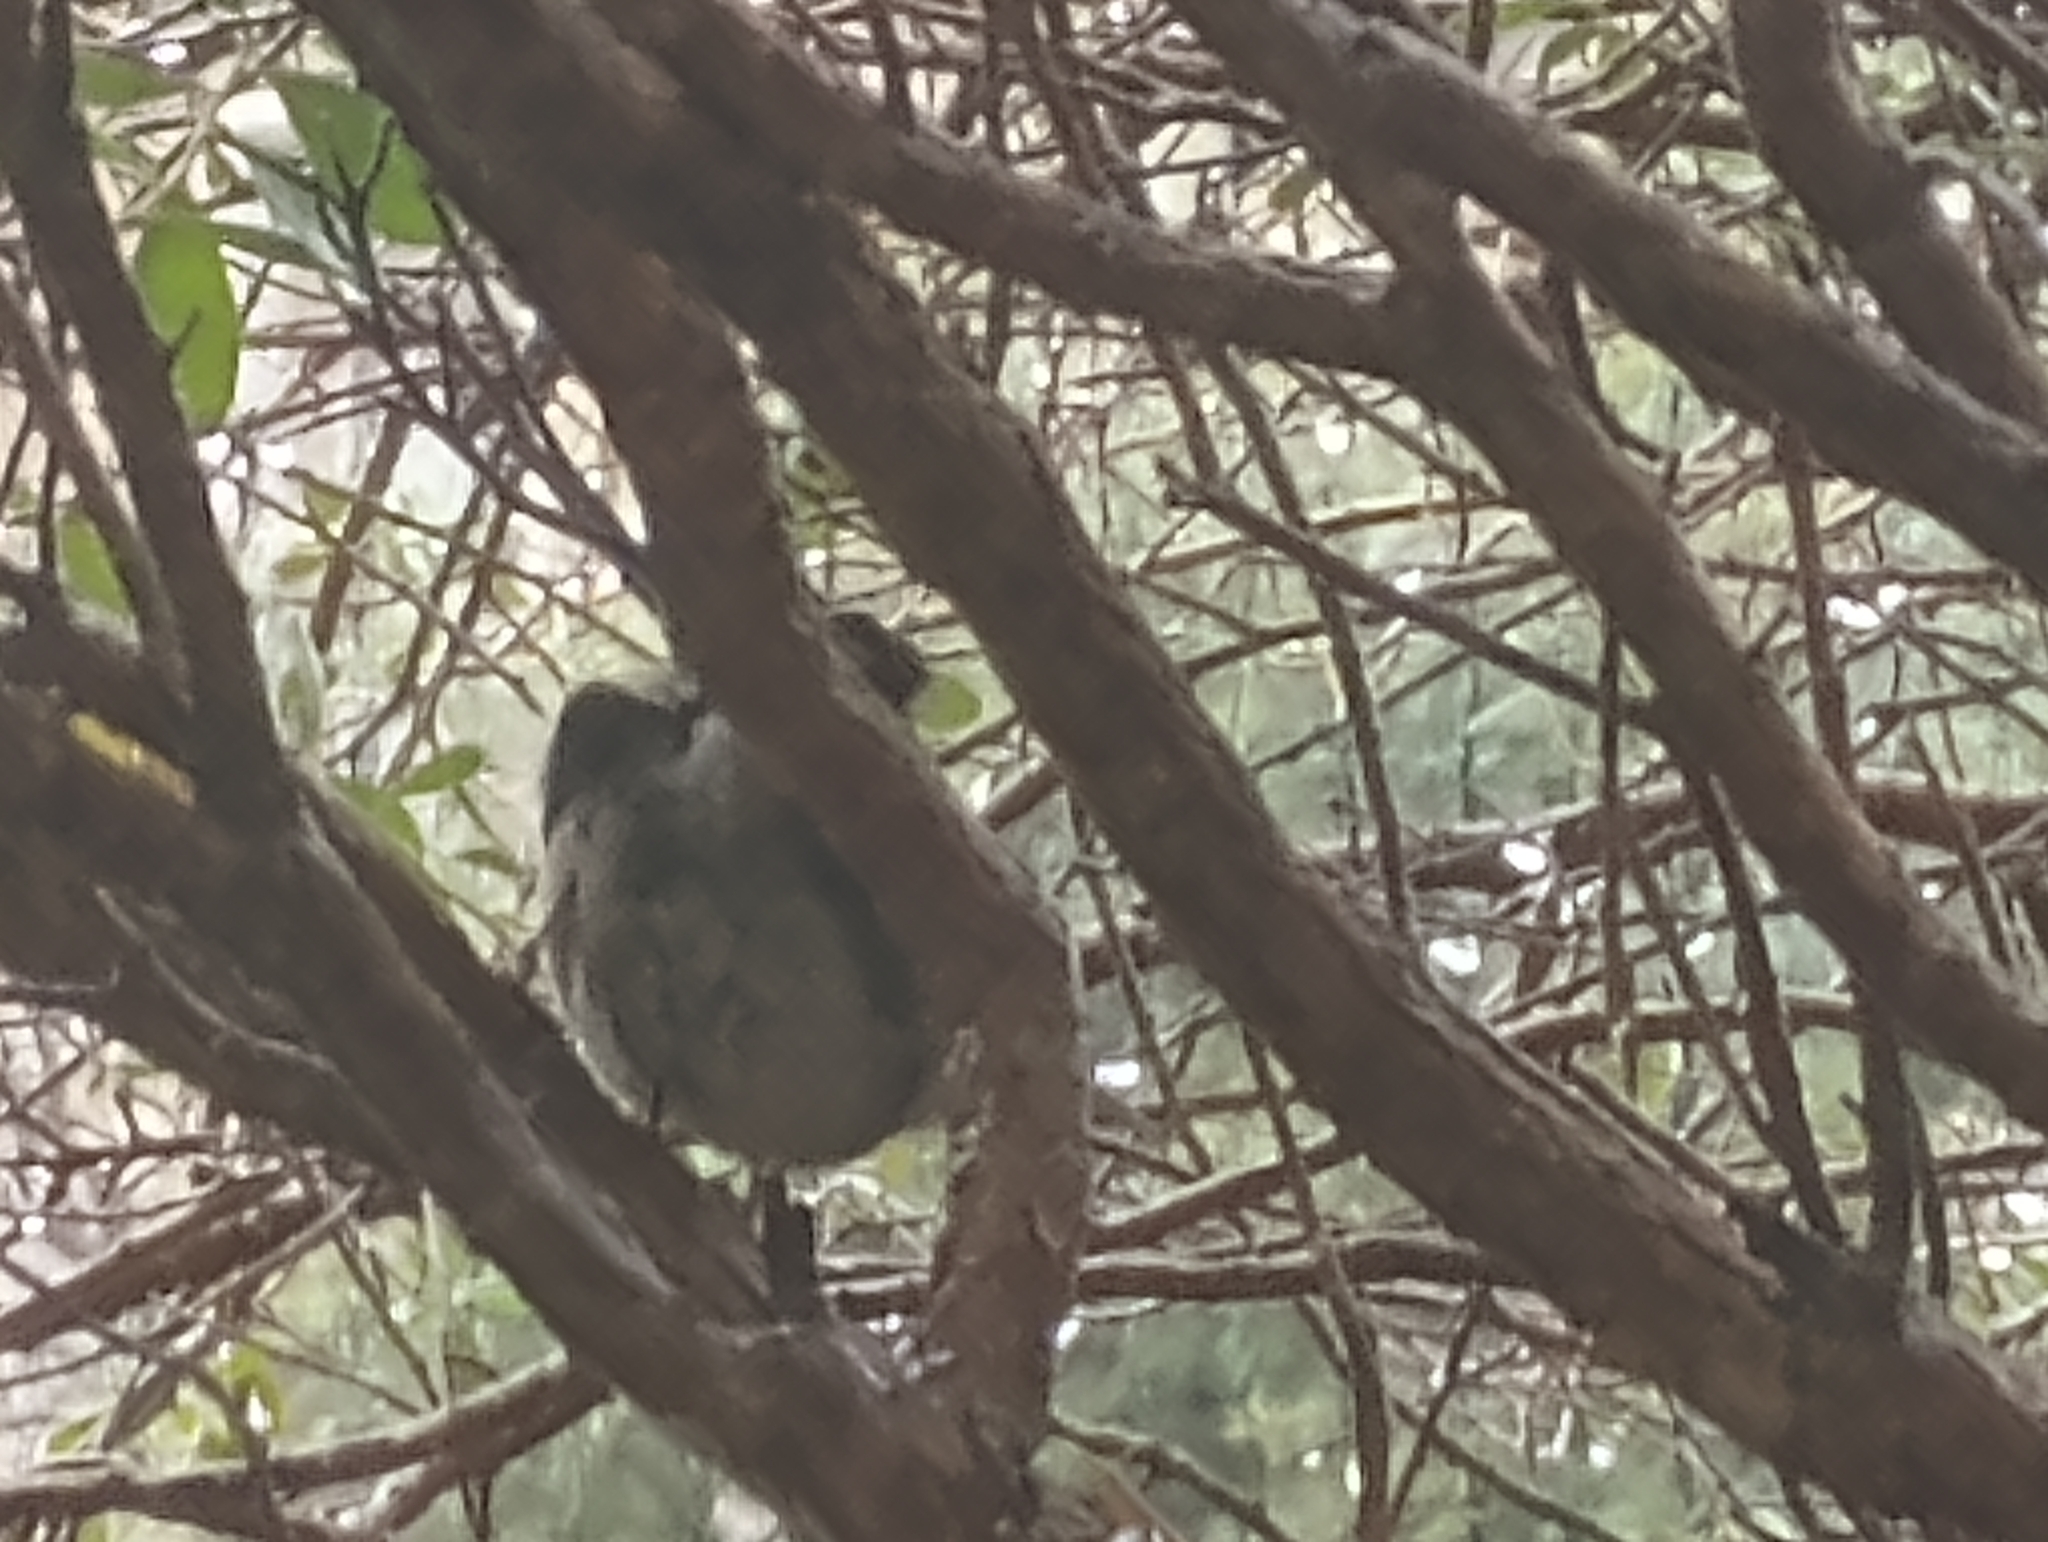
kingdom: Animalia
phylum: Chordata
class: Aves
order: Passeriformes
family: Troglodytidae
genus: Thryomanes
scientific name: Thryomanes bewickii
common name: Bewick's wren
